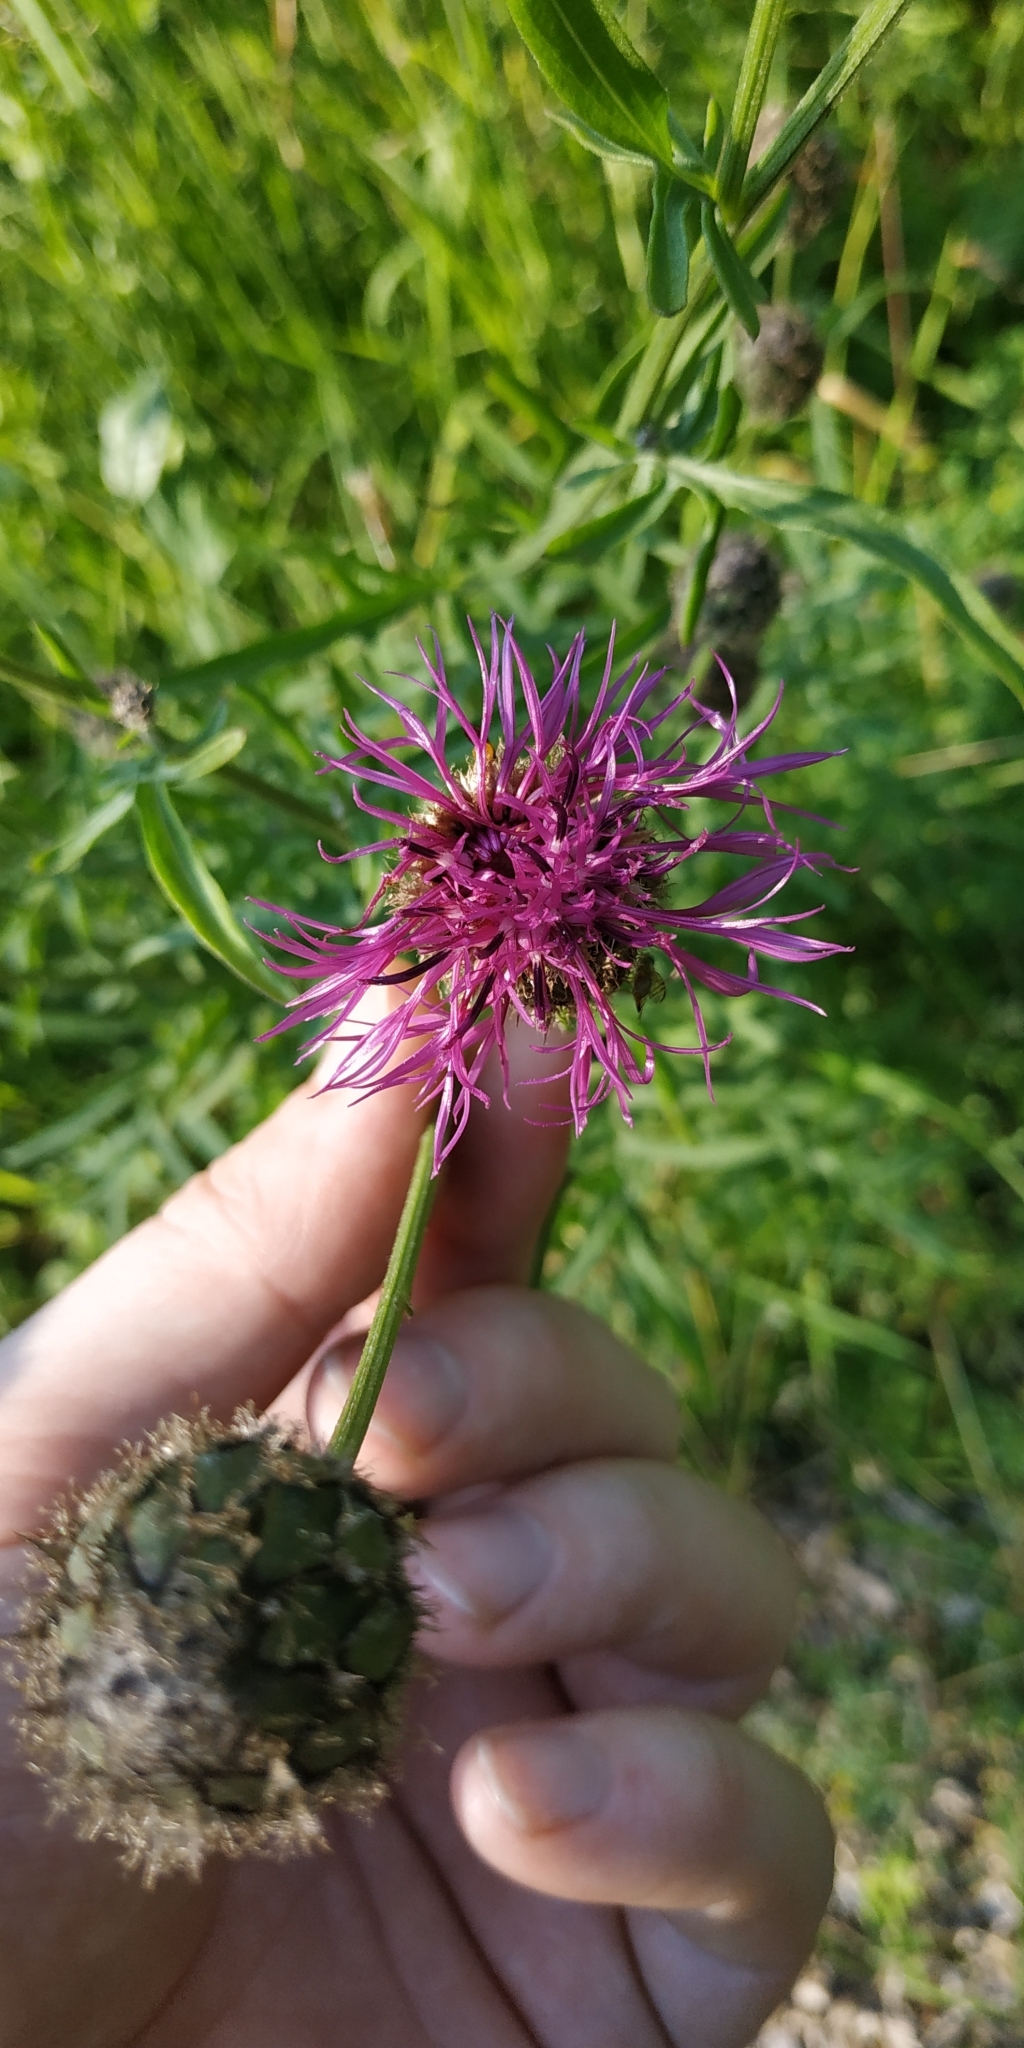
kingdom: Plantae
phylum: Tracheophyta
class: Magnoliopsida
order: Asterales
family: Asteraceae
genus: Centaurea
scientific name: Centaurea scabiosa
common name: Greater knapweed
